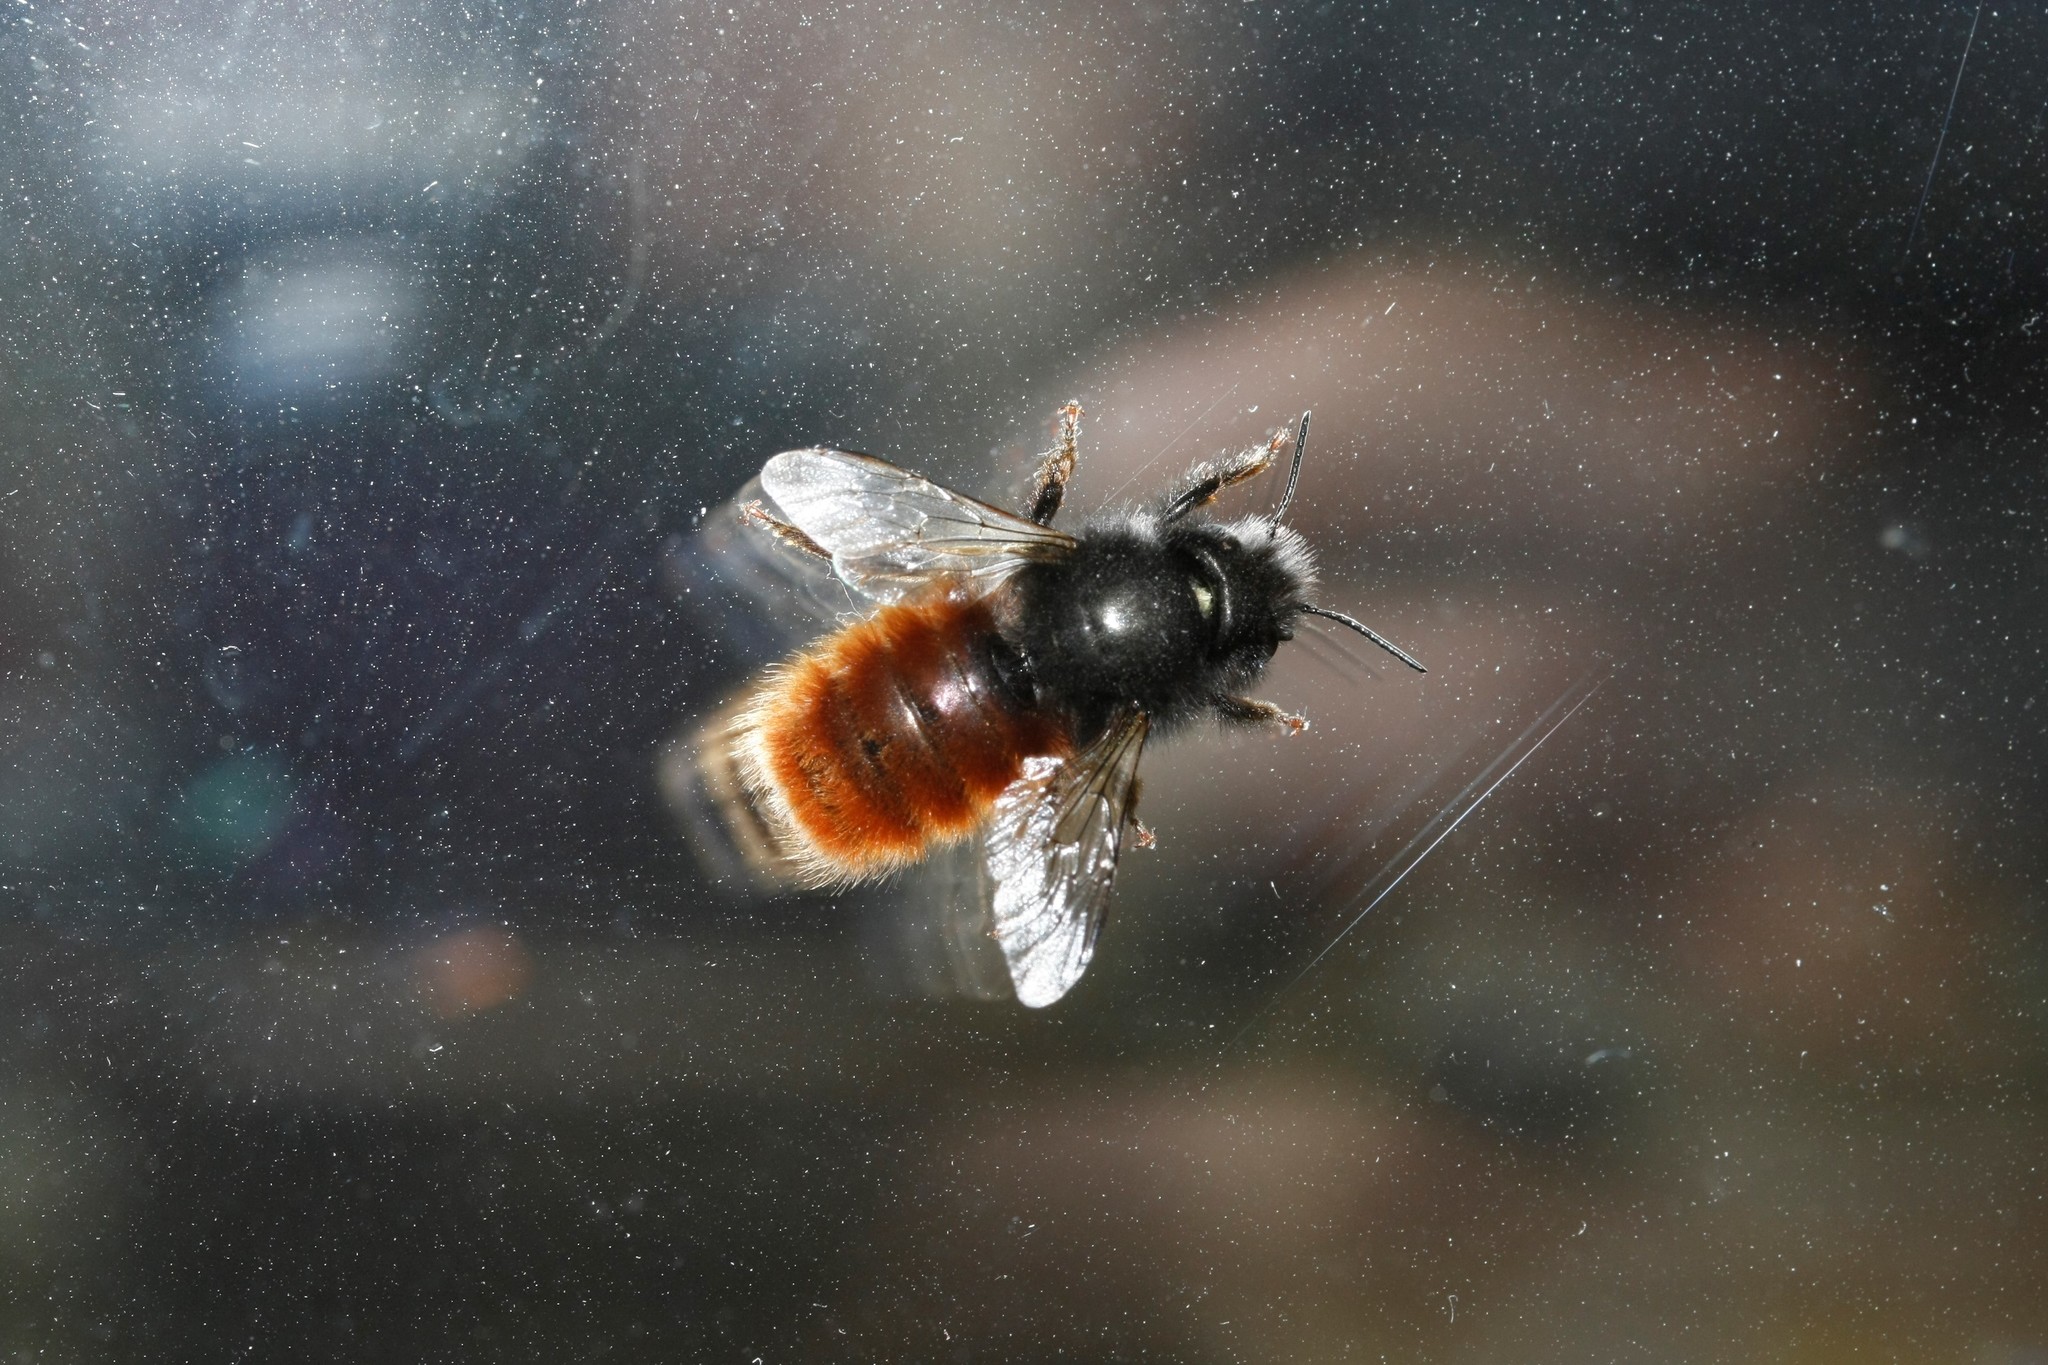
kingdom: Animalia
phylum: Arthropoda
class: Insecta
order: Hymenoptera
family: Megachilidae
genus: Osmia
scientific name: Osmia cornuta
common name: Mason bee
